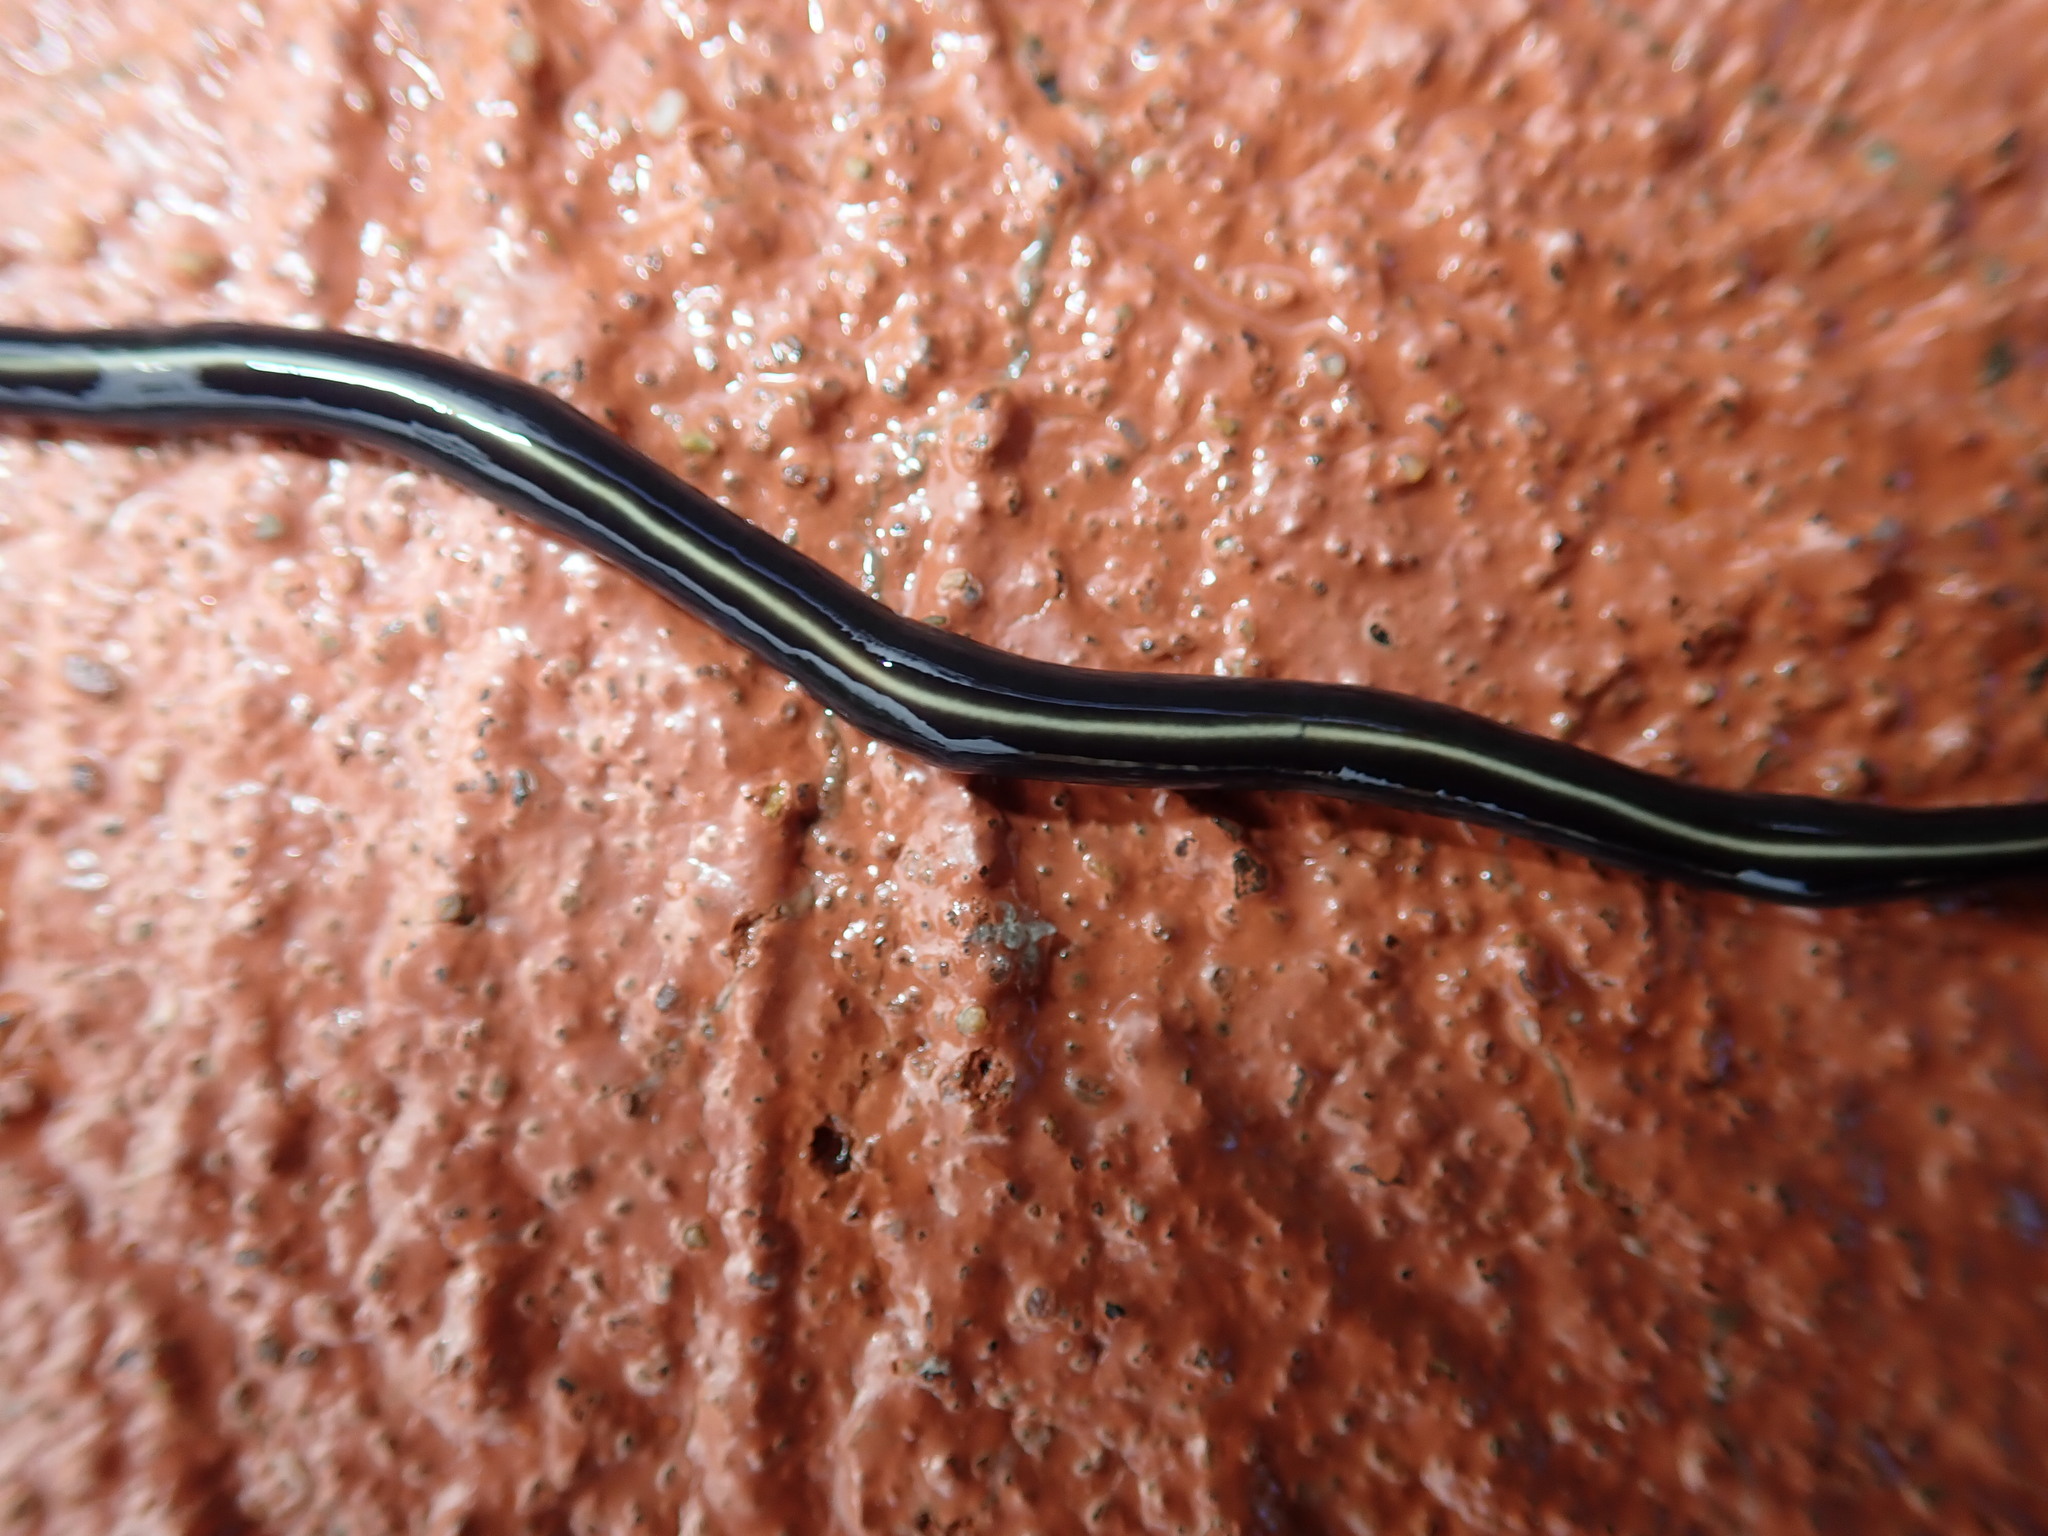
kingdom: Animalia
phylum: Platyhelminthes
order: Tricladida
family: Geoplanidae
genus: Caenoplana
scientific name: Caenoplana coerulea
